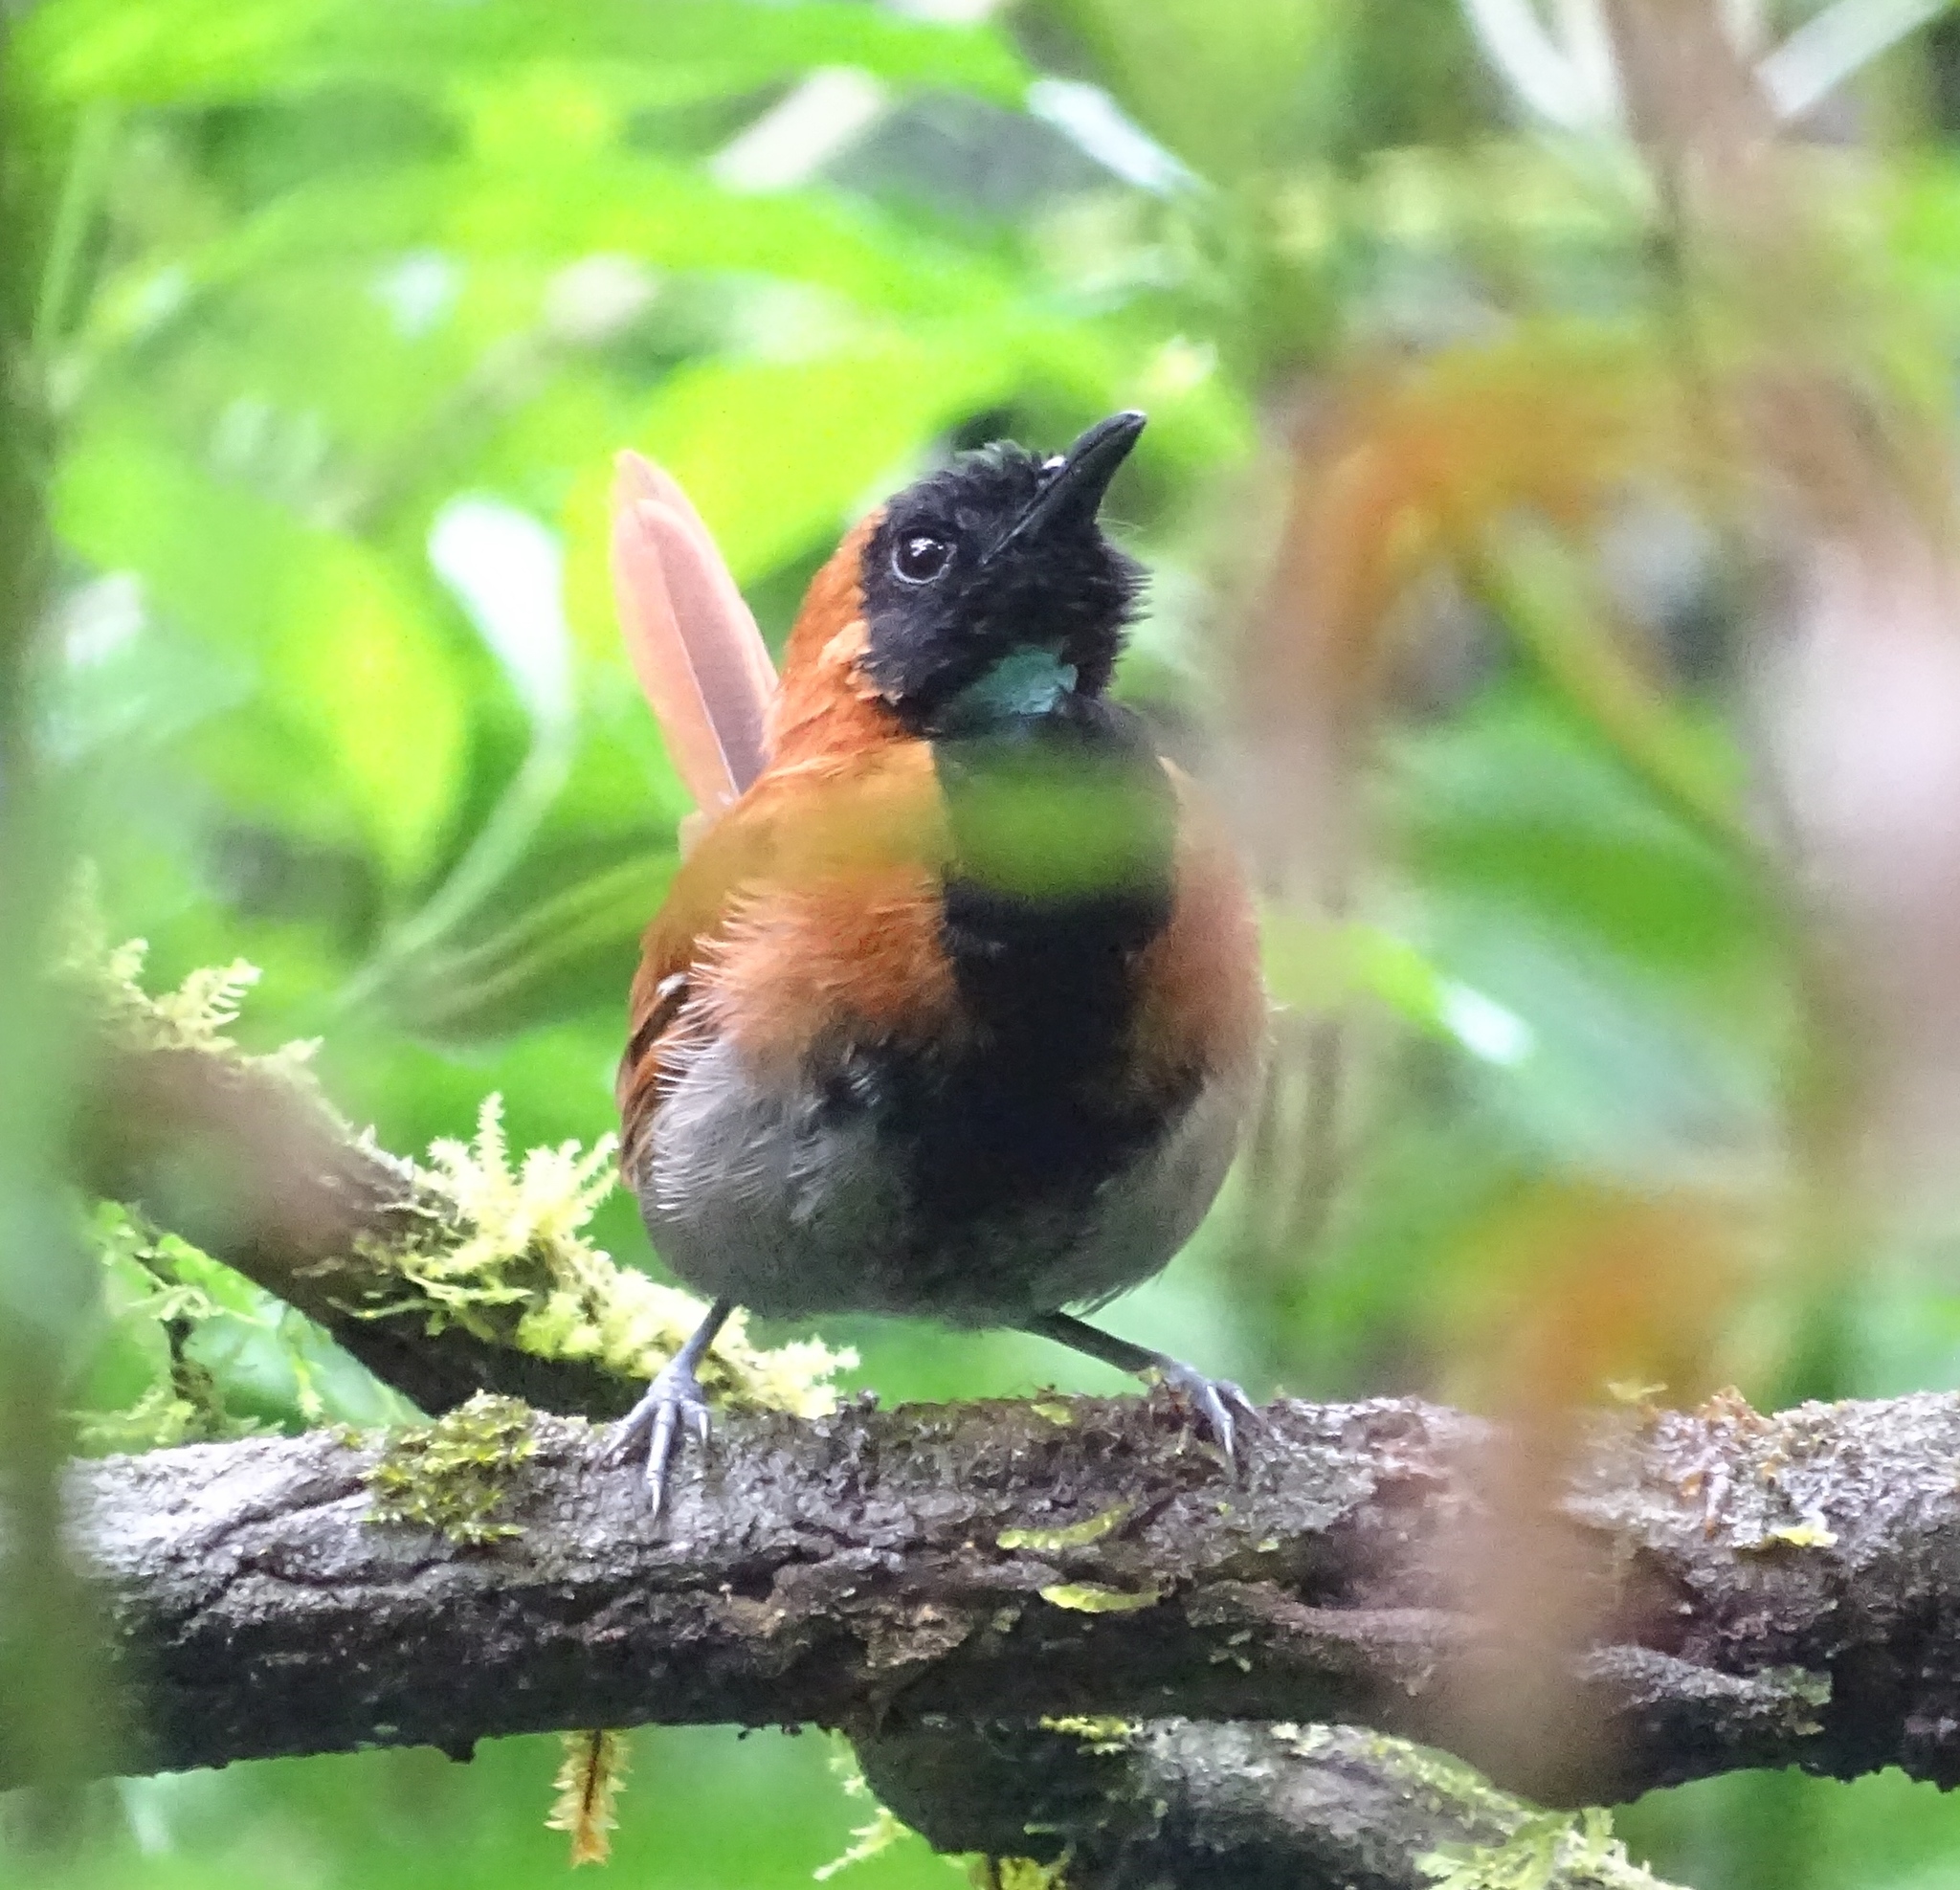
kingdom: Animalia
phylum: Chordata
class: Aves
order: Passeriformes
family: Cisticolidae
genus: Bathmocercus
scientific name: Bathmocercus rufus
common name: Black-faced rufous warbler
